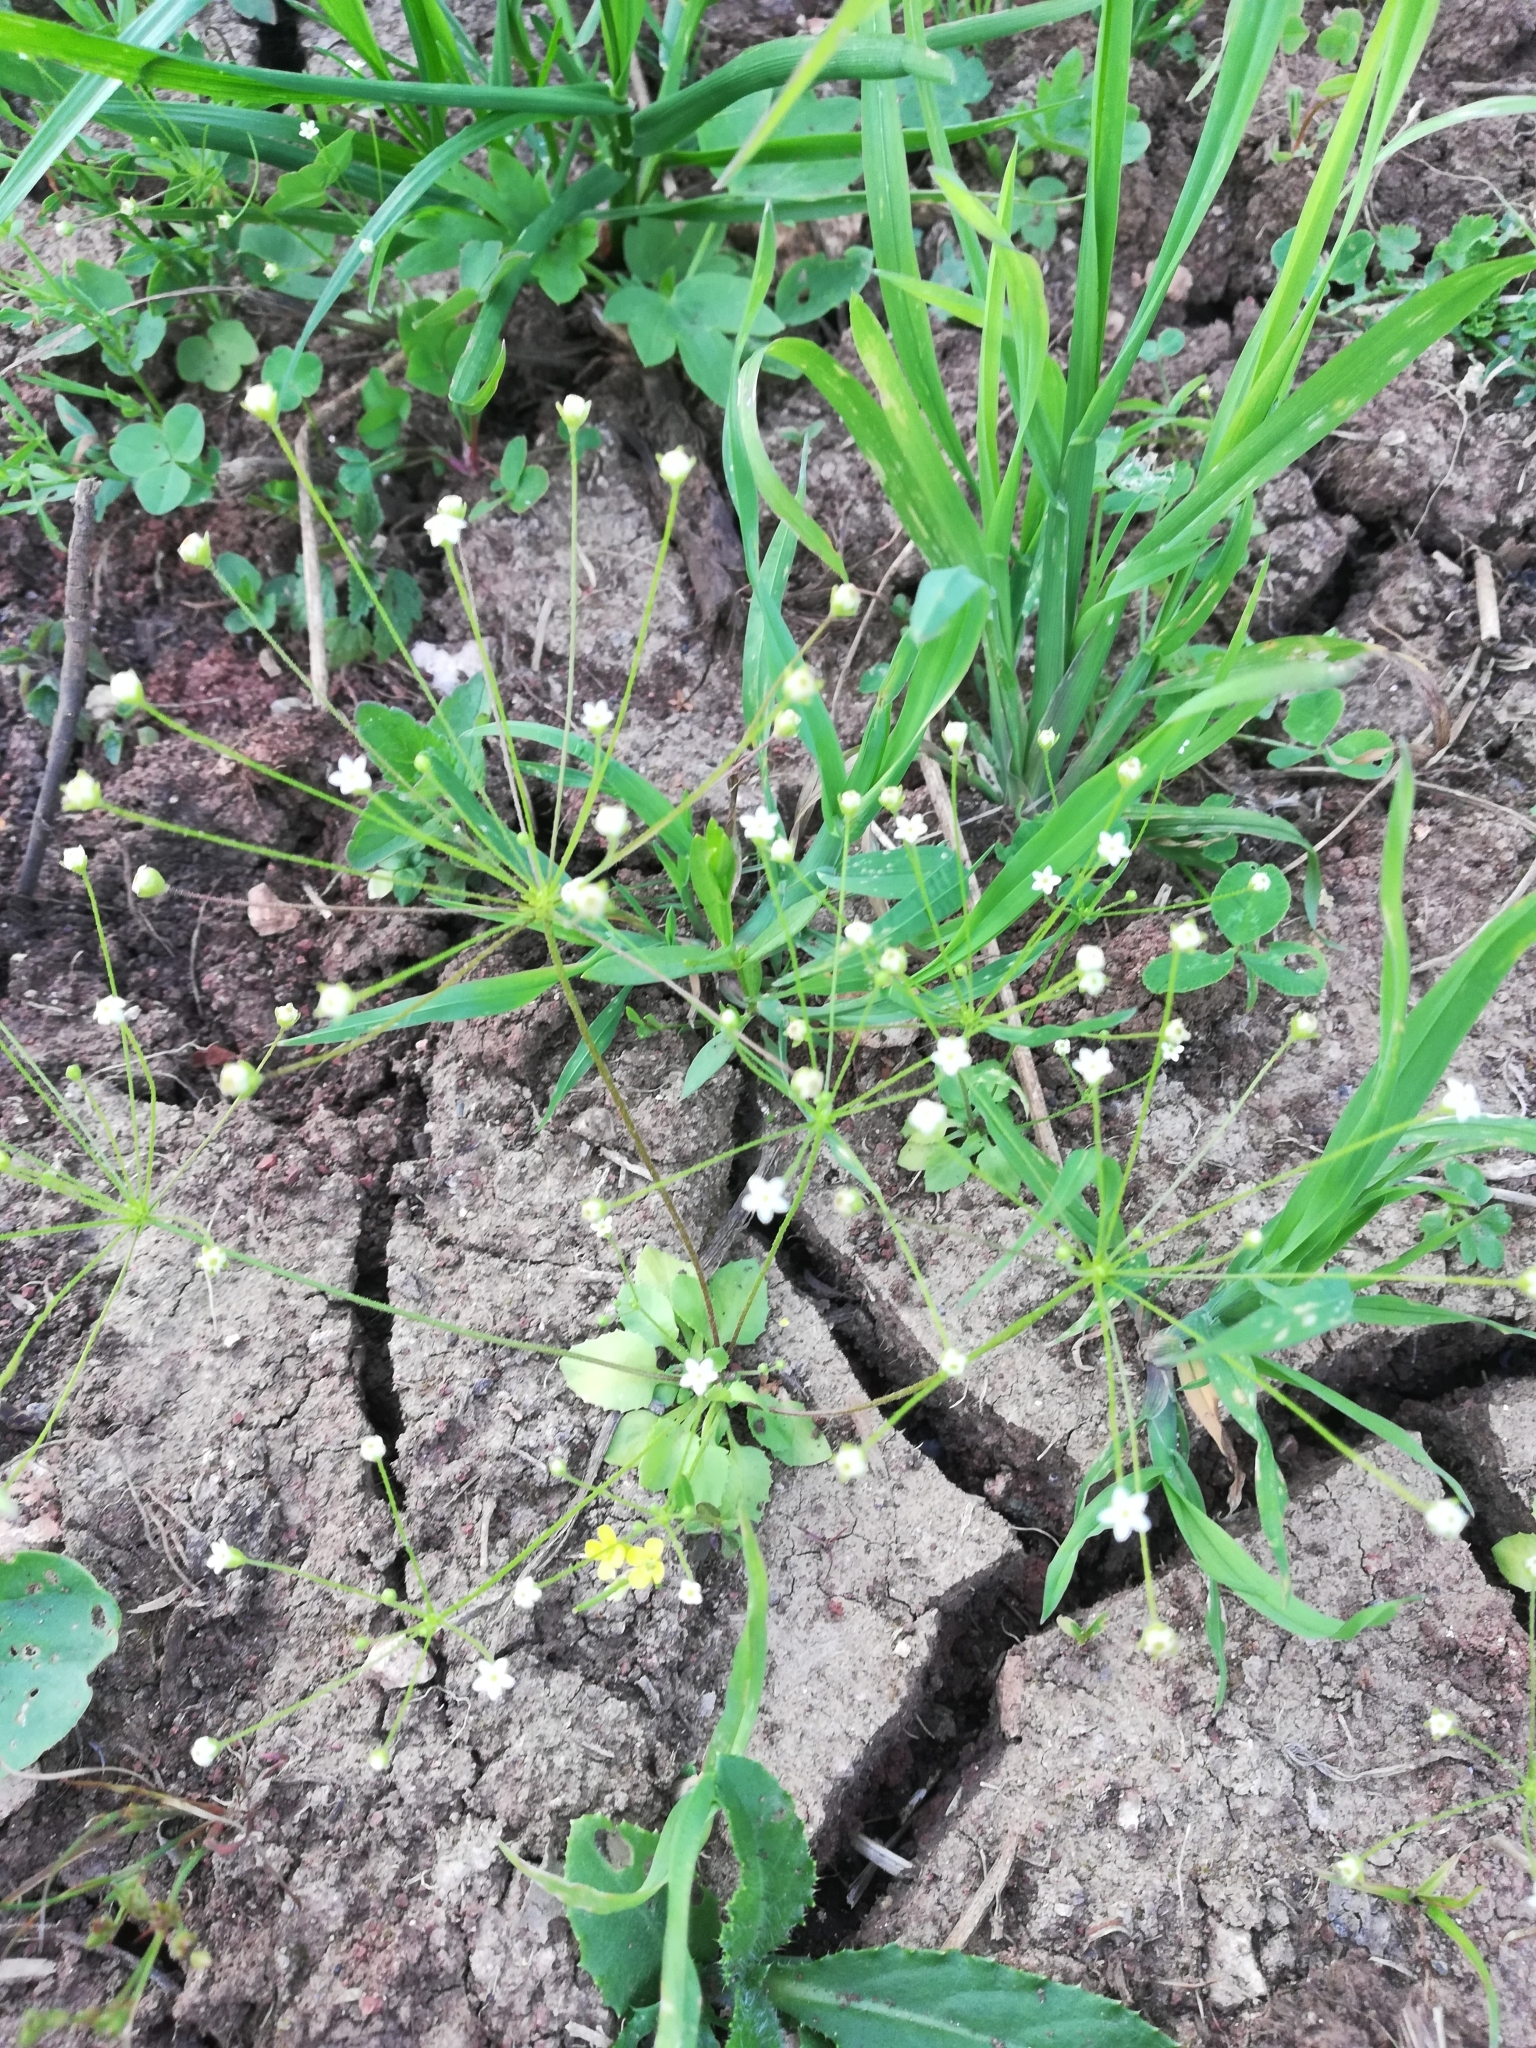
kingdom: Plantae
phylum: Tracheophyta
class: Magnoliopsida
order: Ericales
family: Primulaceae
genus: Androsace
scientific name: Androsace filiformis
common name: Filiform rock jasmine
